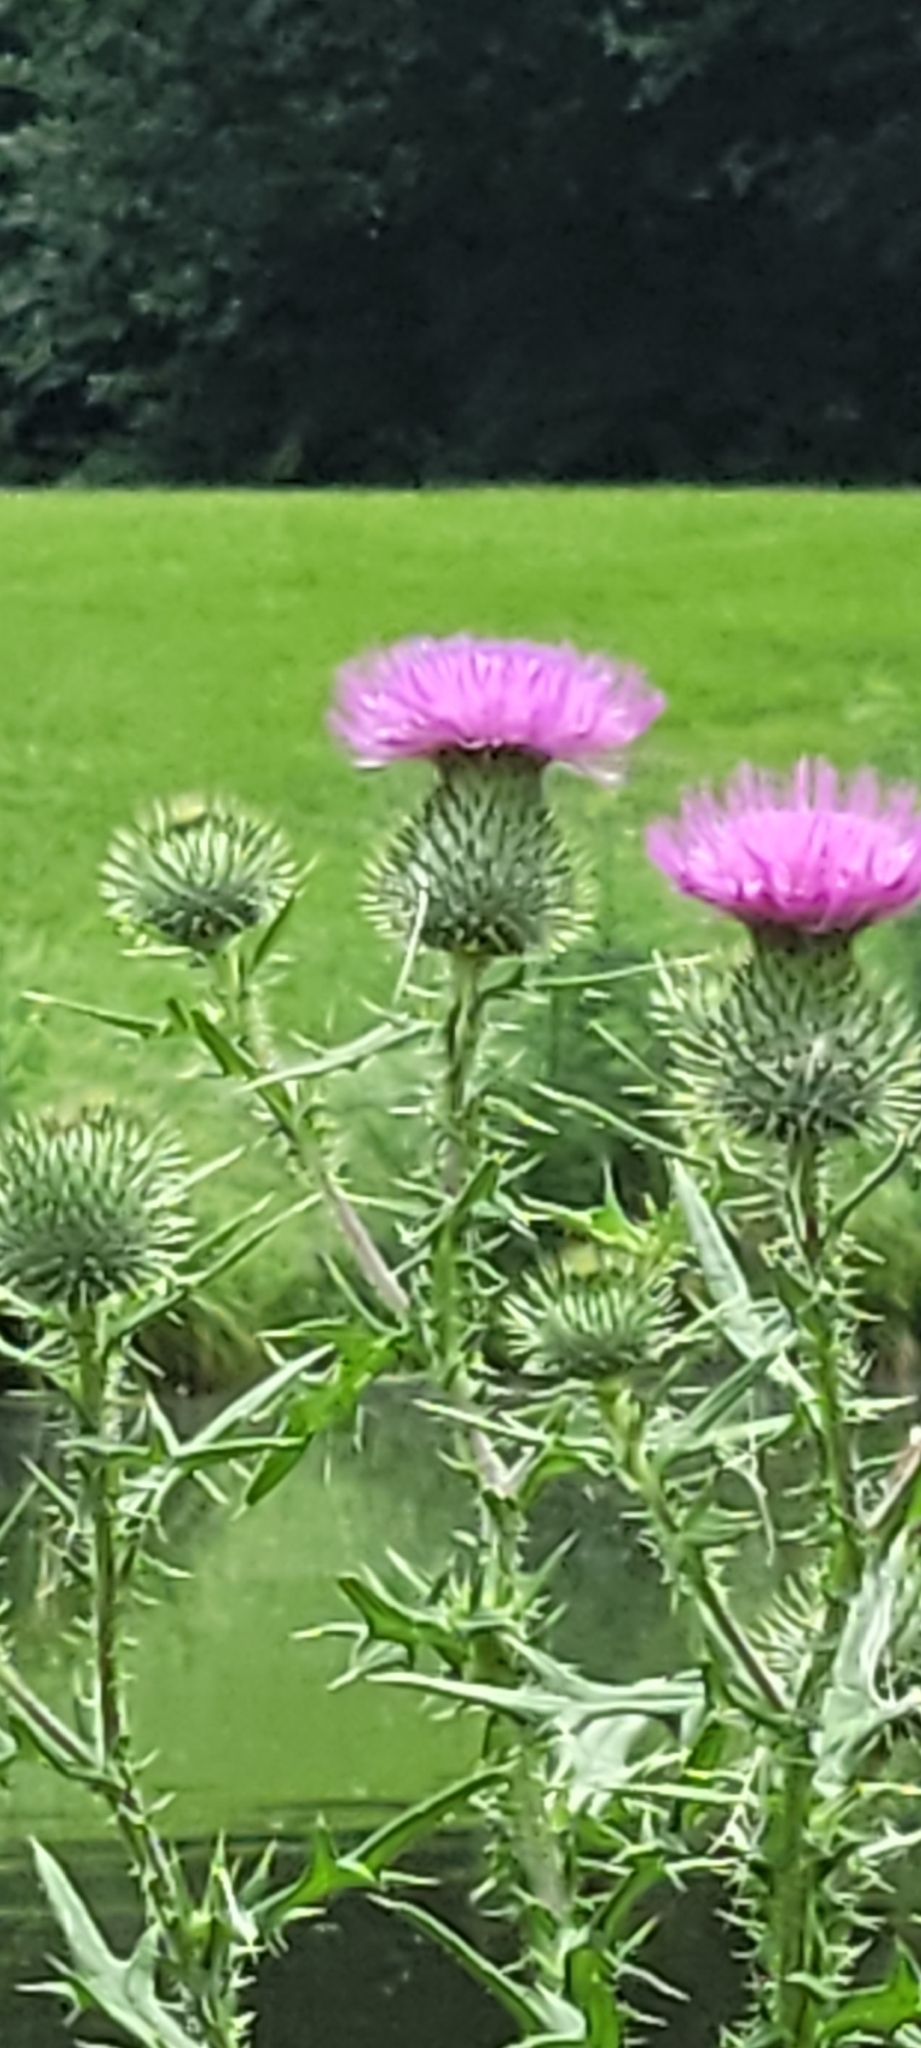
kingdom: Plantae
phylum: Tracheophyta
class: Magnoliopsida
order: Asterales
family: Asteraceae
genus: Cirsium
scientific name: Cirsium vulgare
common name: Bull thistle
